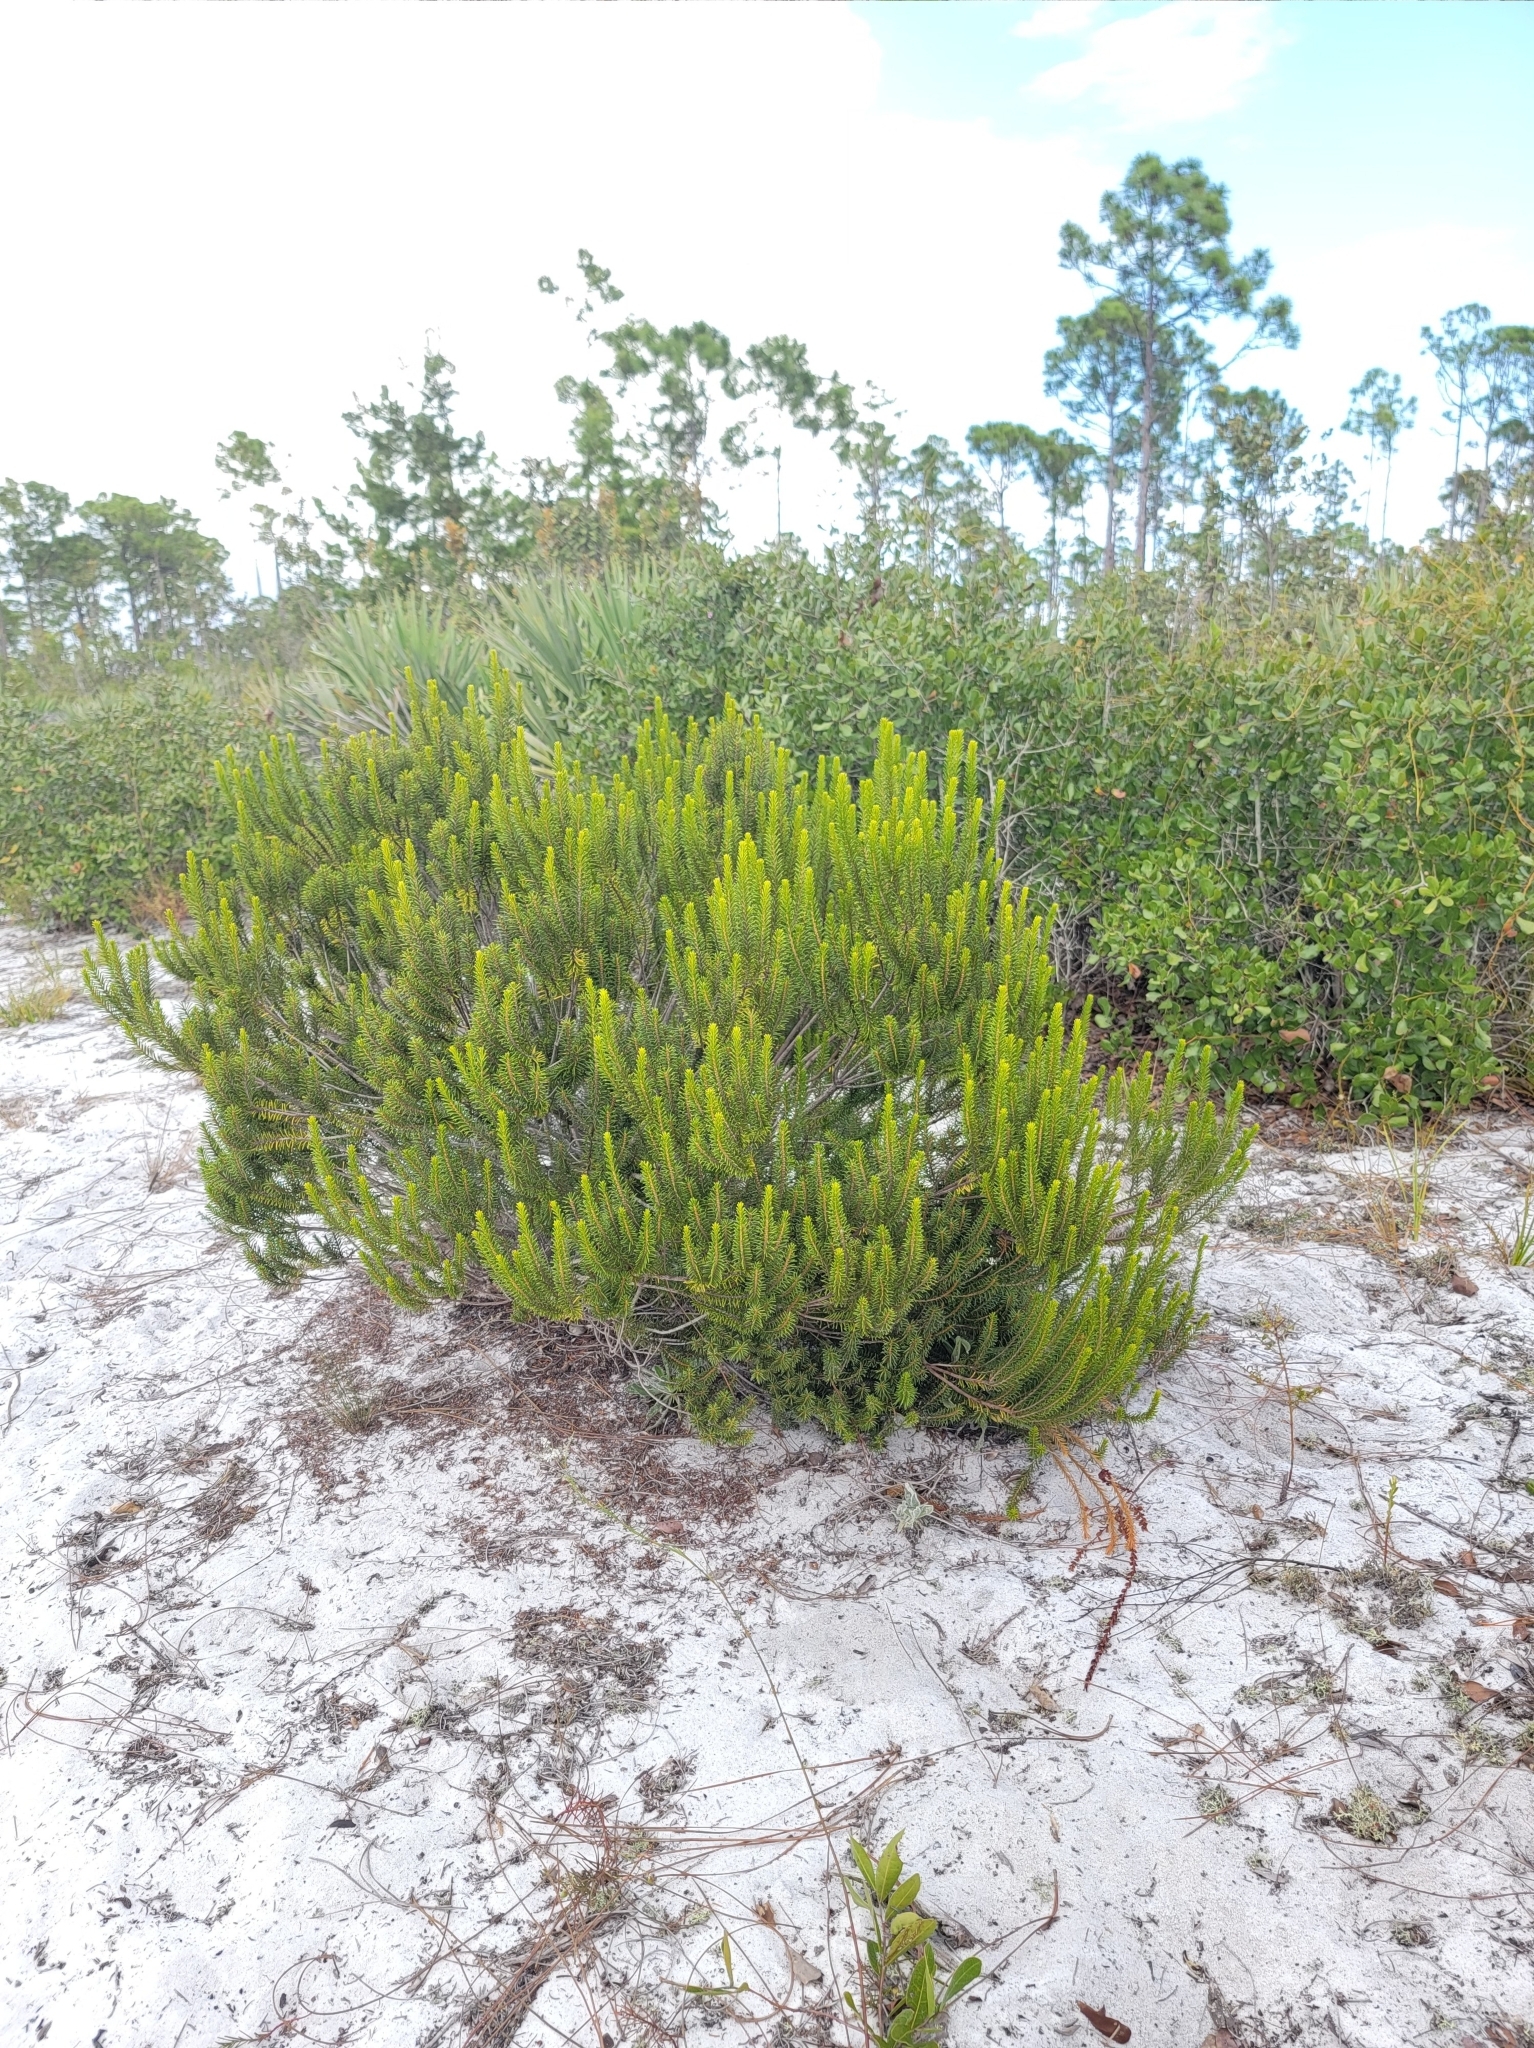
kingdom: Plantae
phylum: Tracheophyta
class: Magnoliopsida
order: Ericales
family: Ericaceae
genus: Ceratiola
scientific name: Ceratiola ericoides
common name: Sandhill-rosemary
